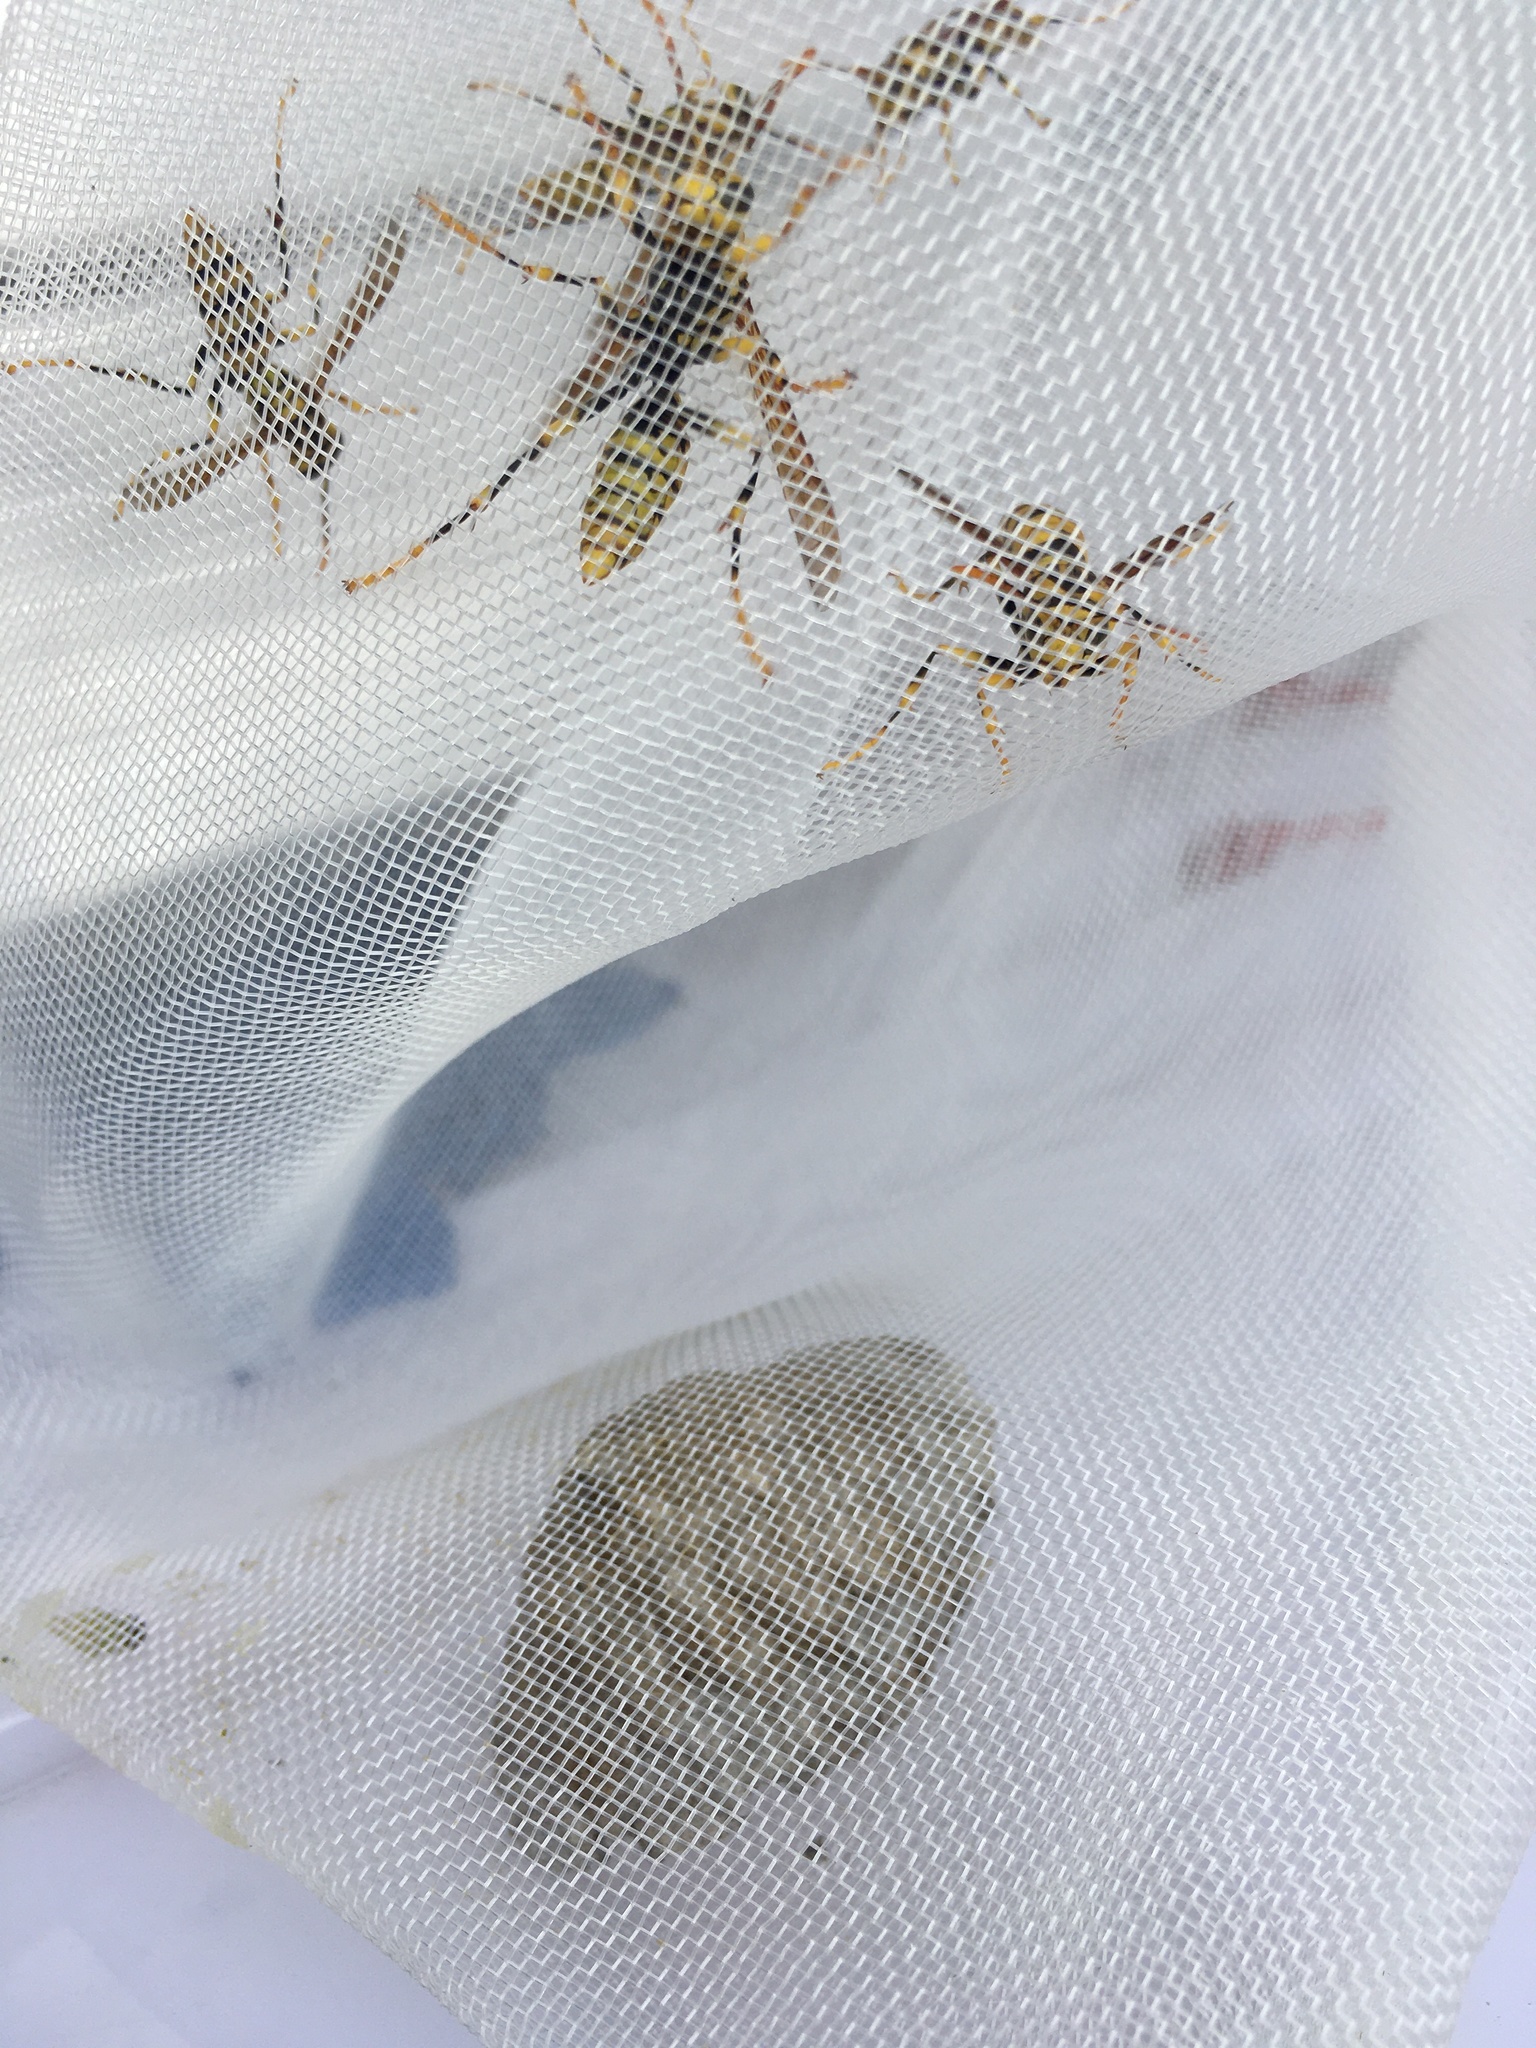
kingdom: Animalia
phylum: Arthropoda
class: Insecta
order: Hymenoptera
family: Eumenidae
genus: Polistes
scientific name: Polistes rothneyi
